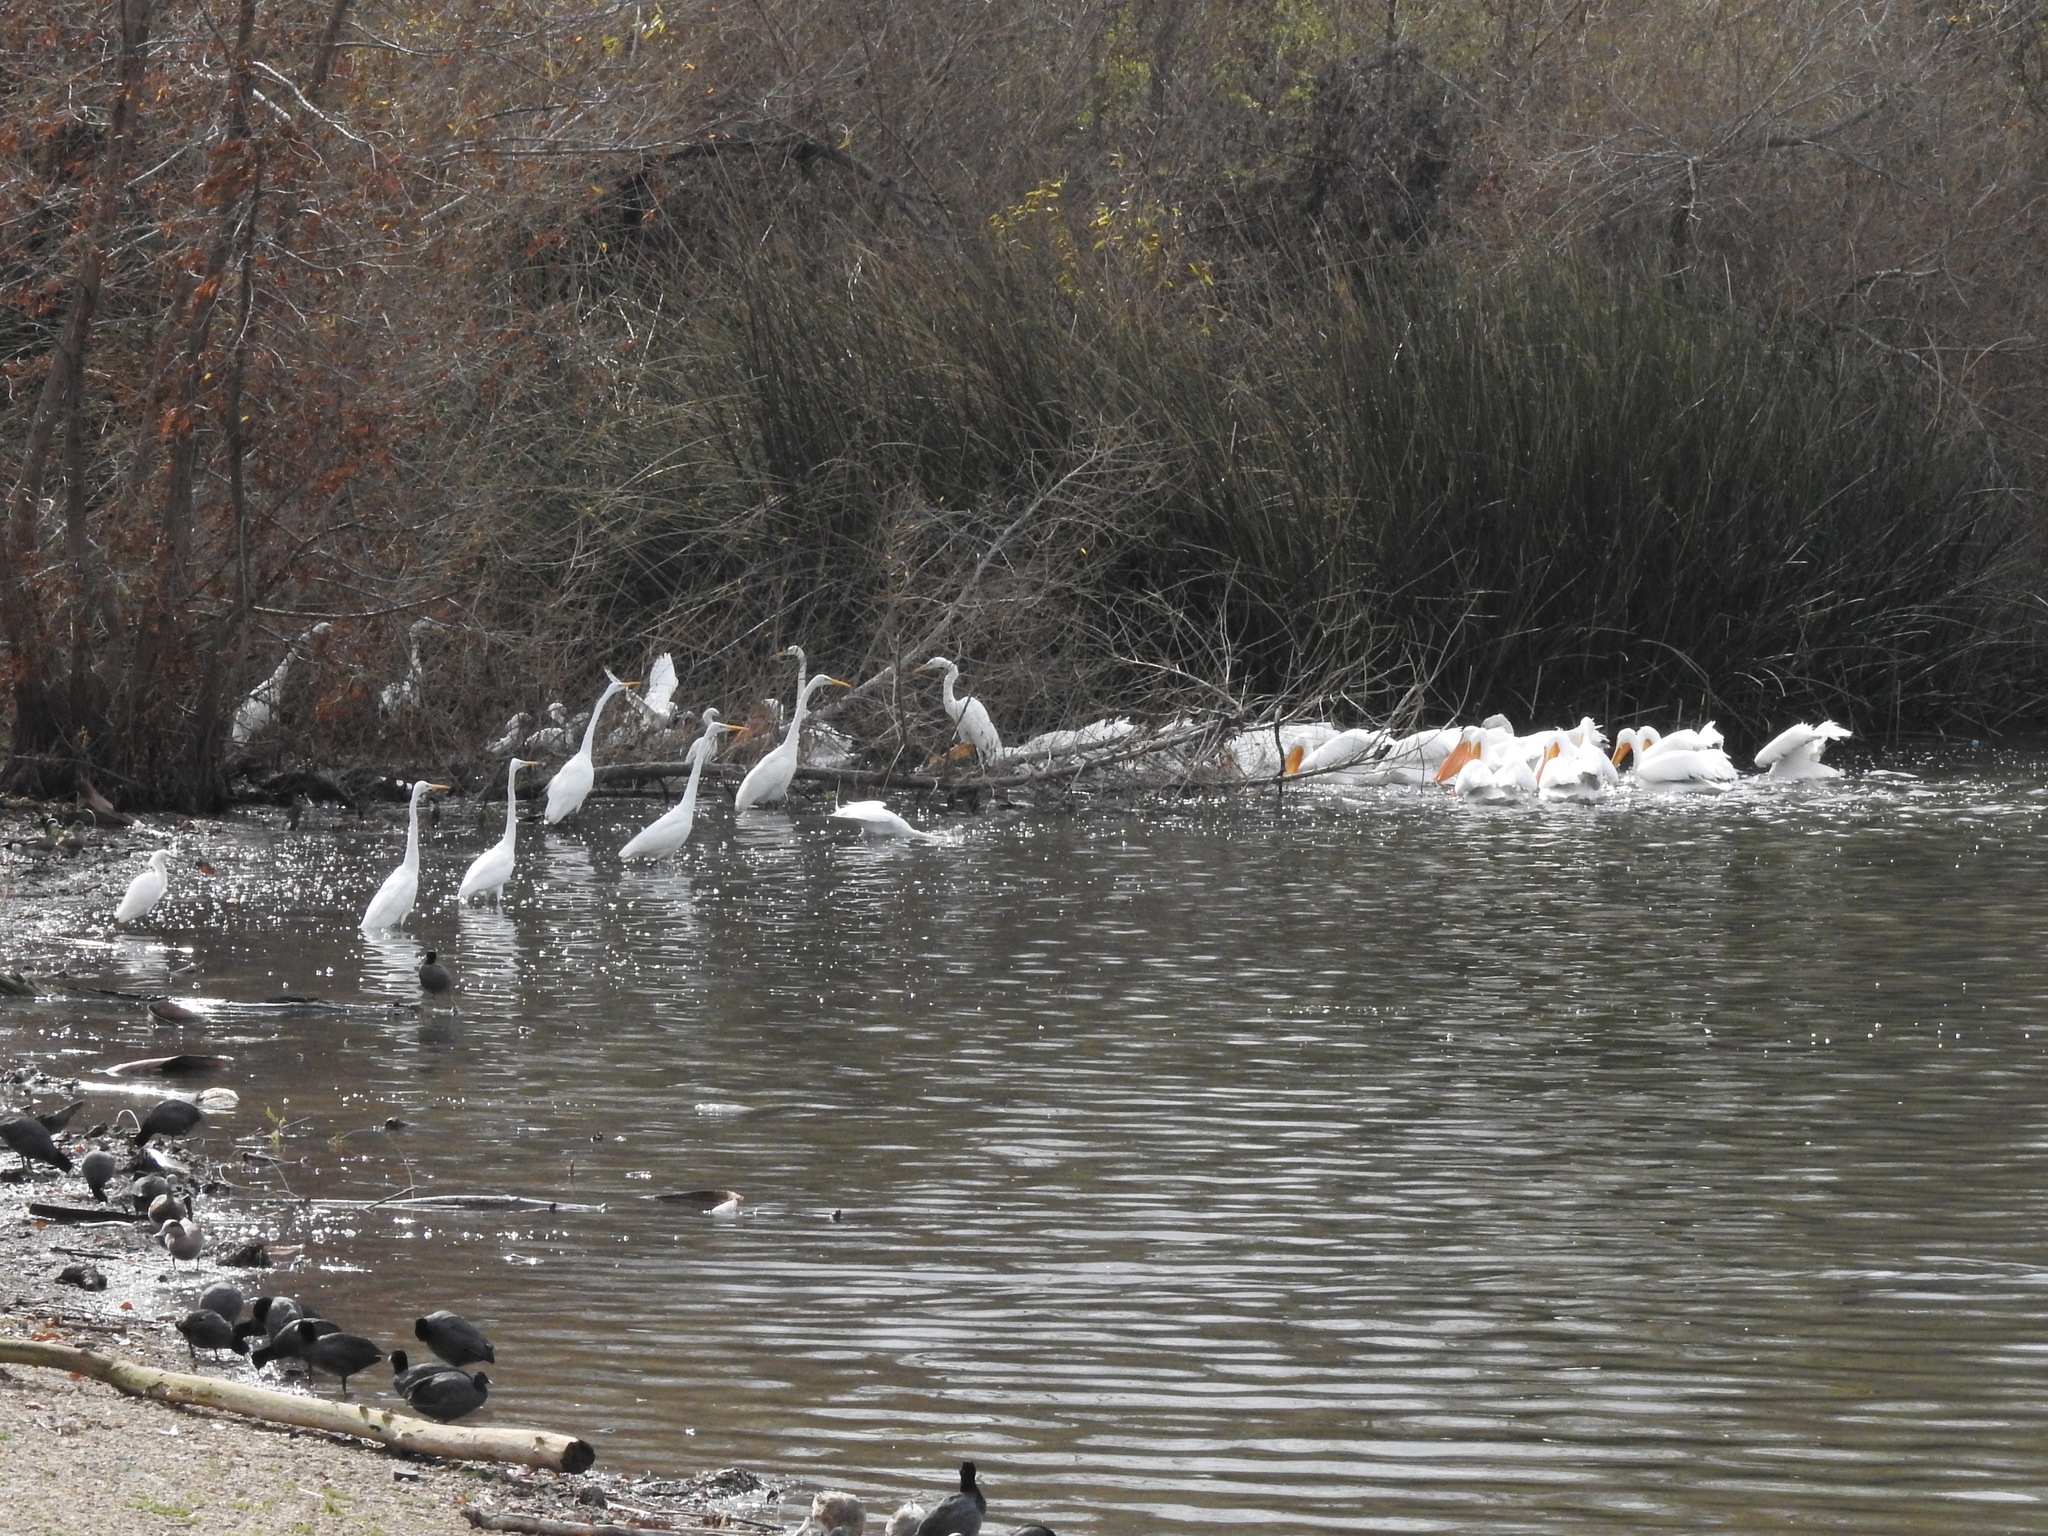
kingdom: Animalia
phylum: Chordata
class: Aves
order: Pelecaniformes
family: Ardeidae
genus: Egretta
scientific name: Egretta thula
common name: Snowy egret
